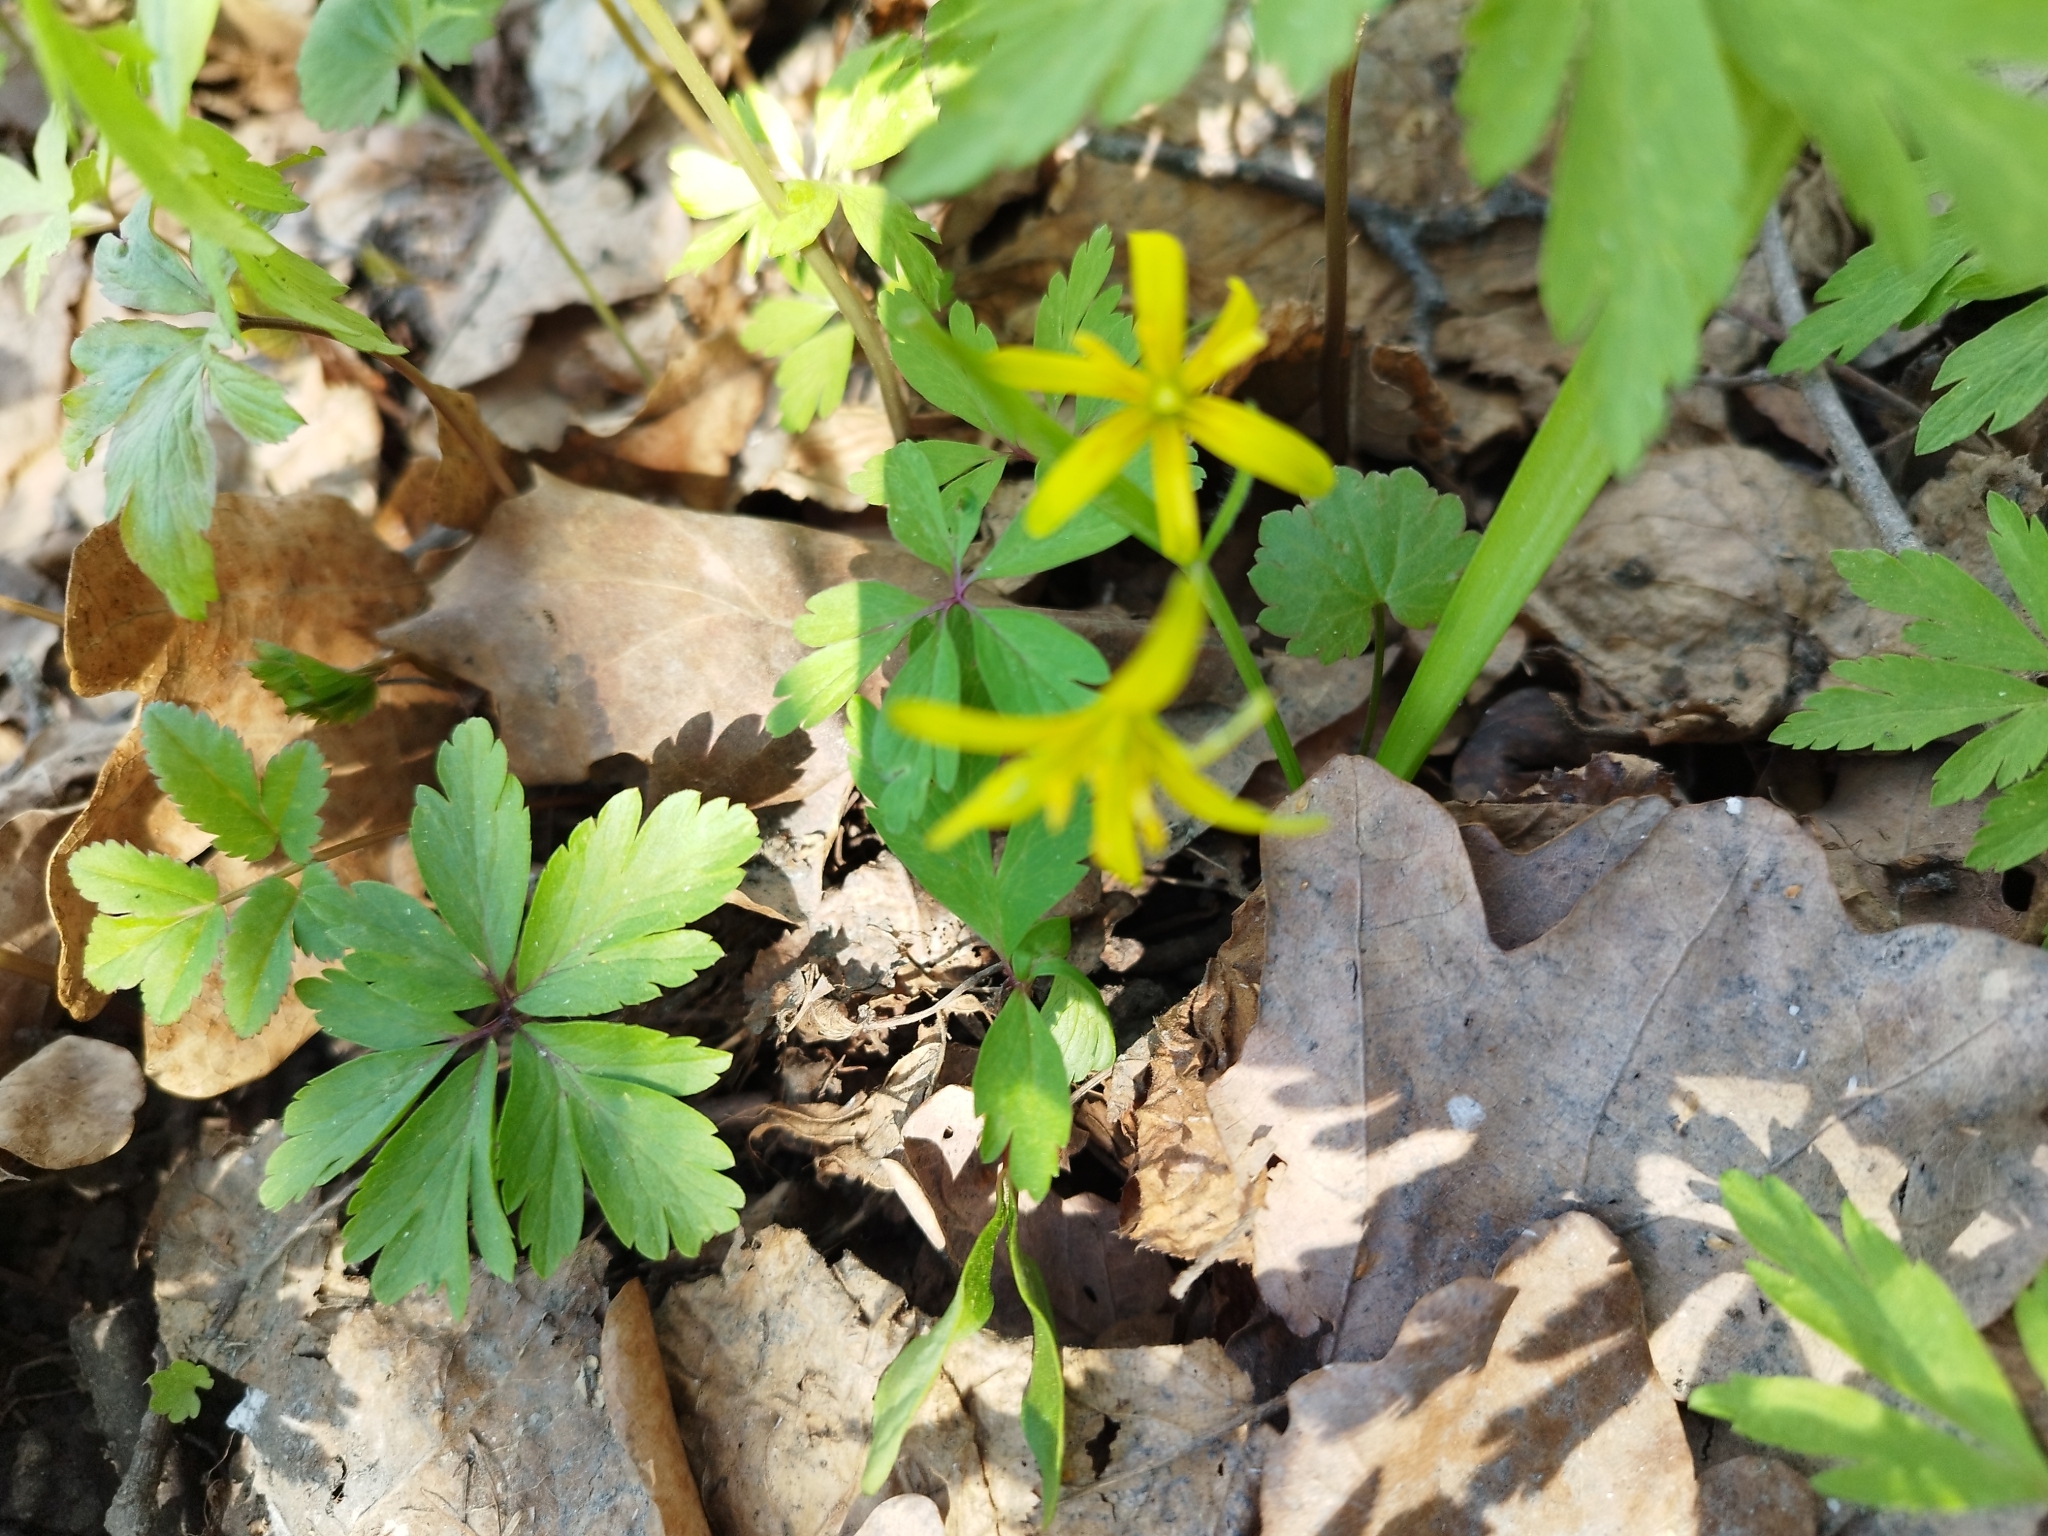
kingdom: Plantae
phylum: Tracheophyta
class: Liliopsida
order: Liliales
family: Liliaceae
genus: Gagea
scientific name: Gagea lutea
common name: Yellow star-of-bethlehem
